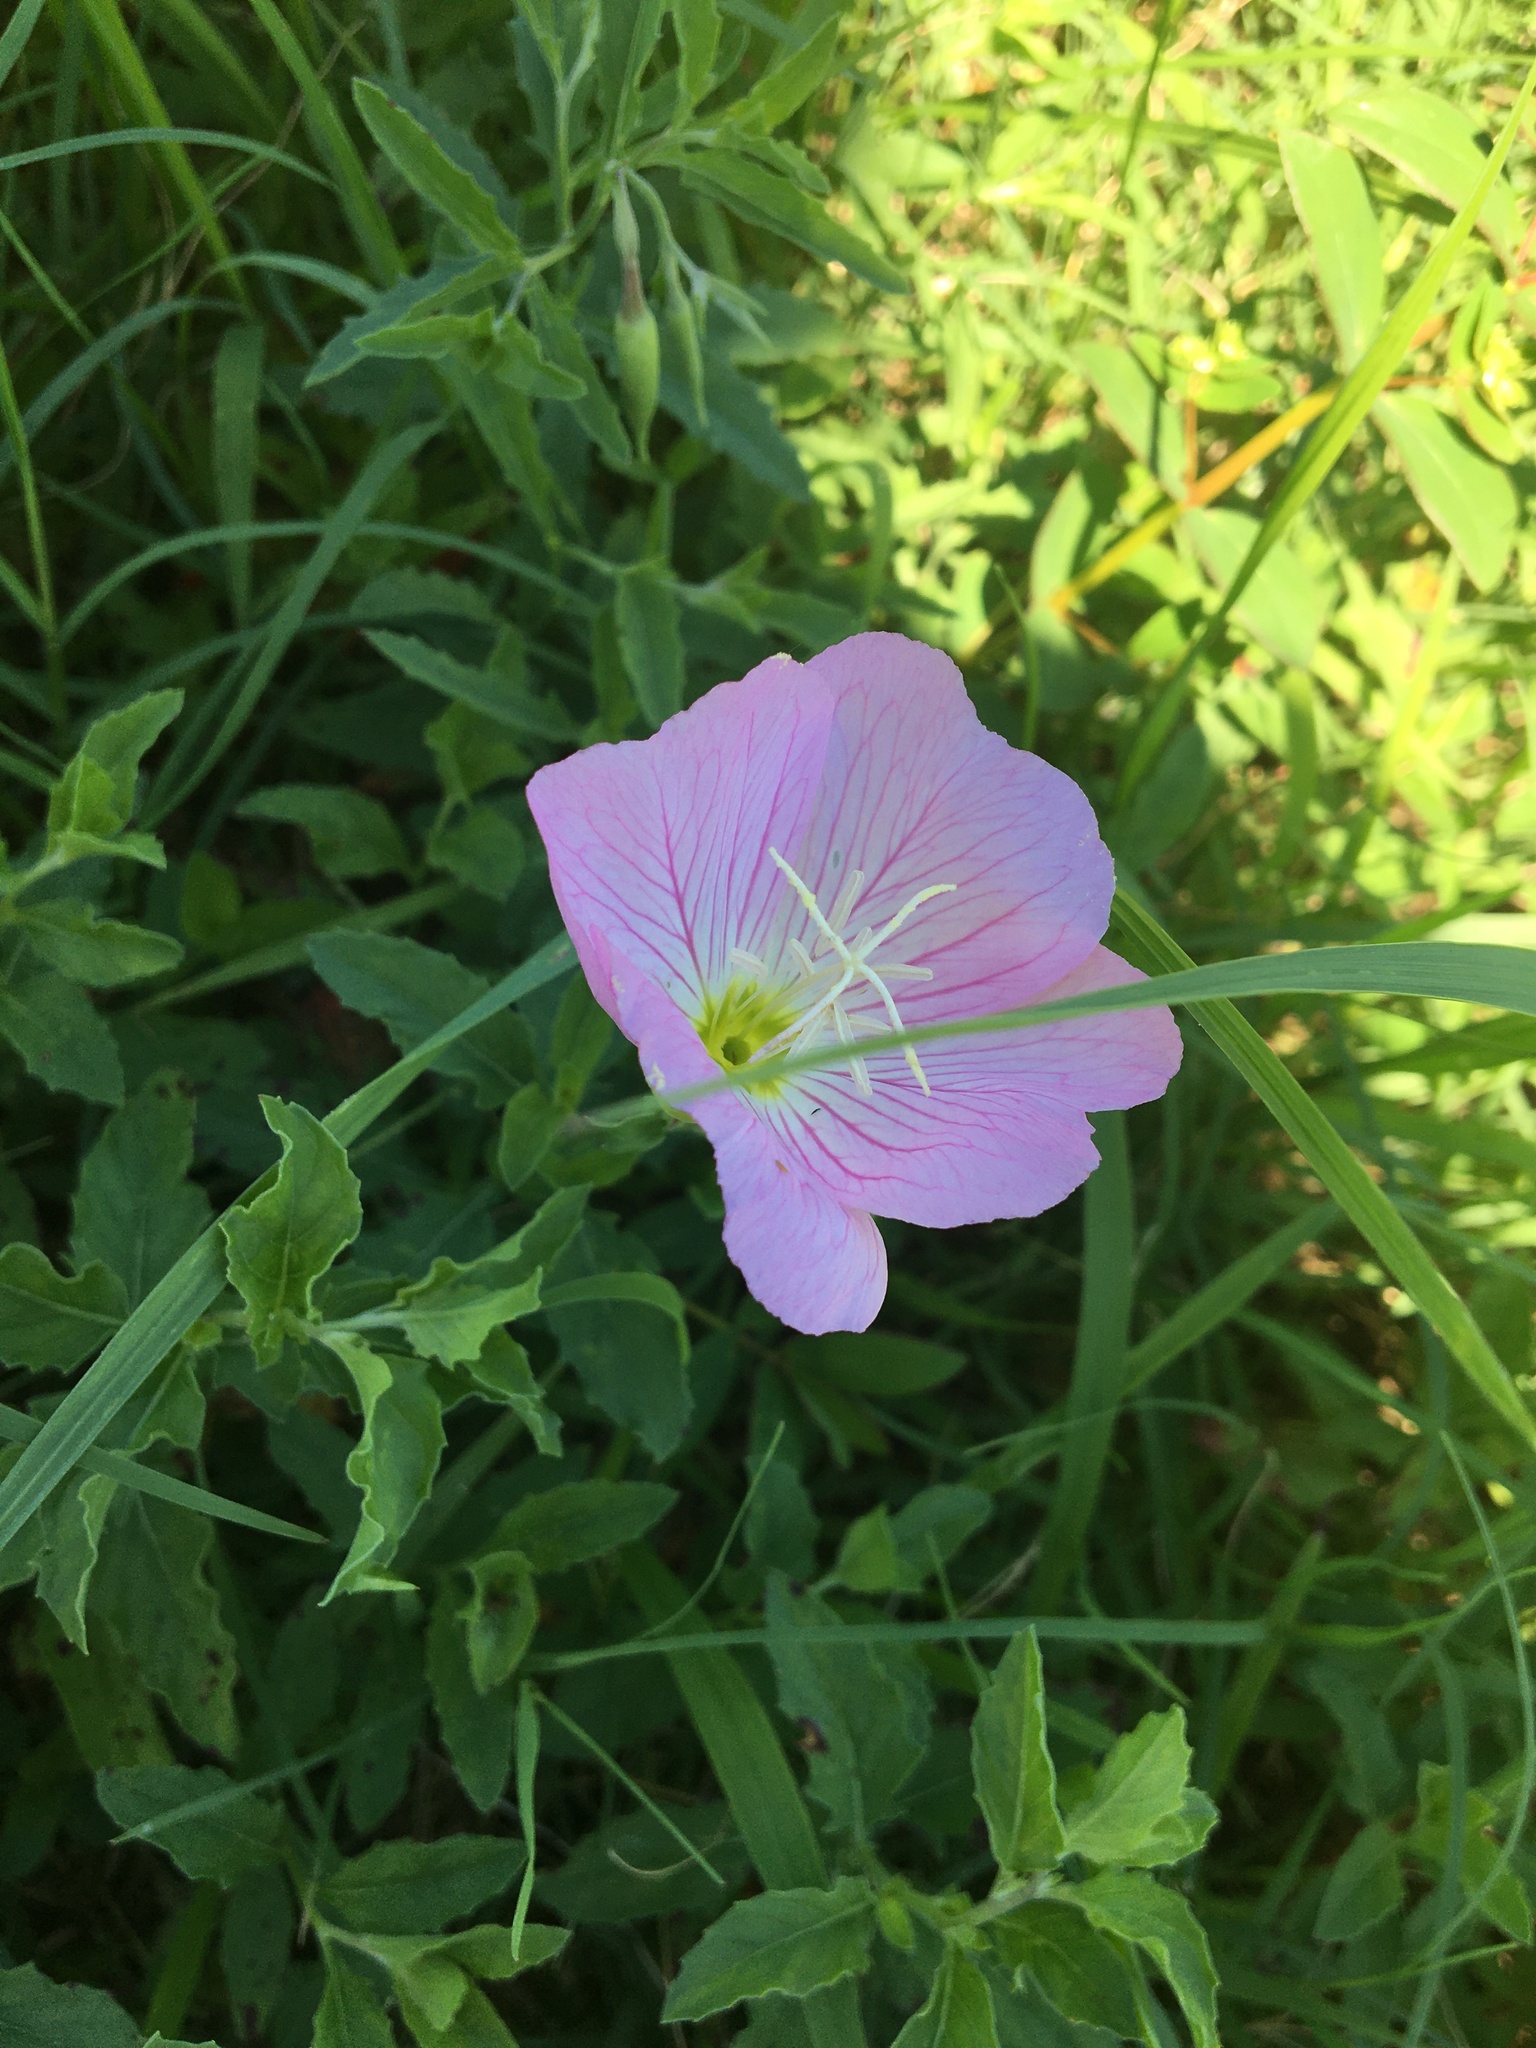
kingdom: Plantae
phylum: Tracheophyta
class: Magnoliopsida
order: Myrtales
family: Onagraceae
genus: Oenothera
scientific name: Oenothera speciosa
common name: White evening-primrose
